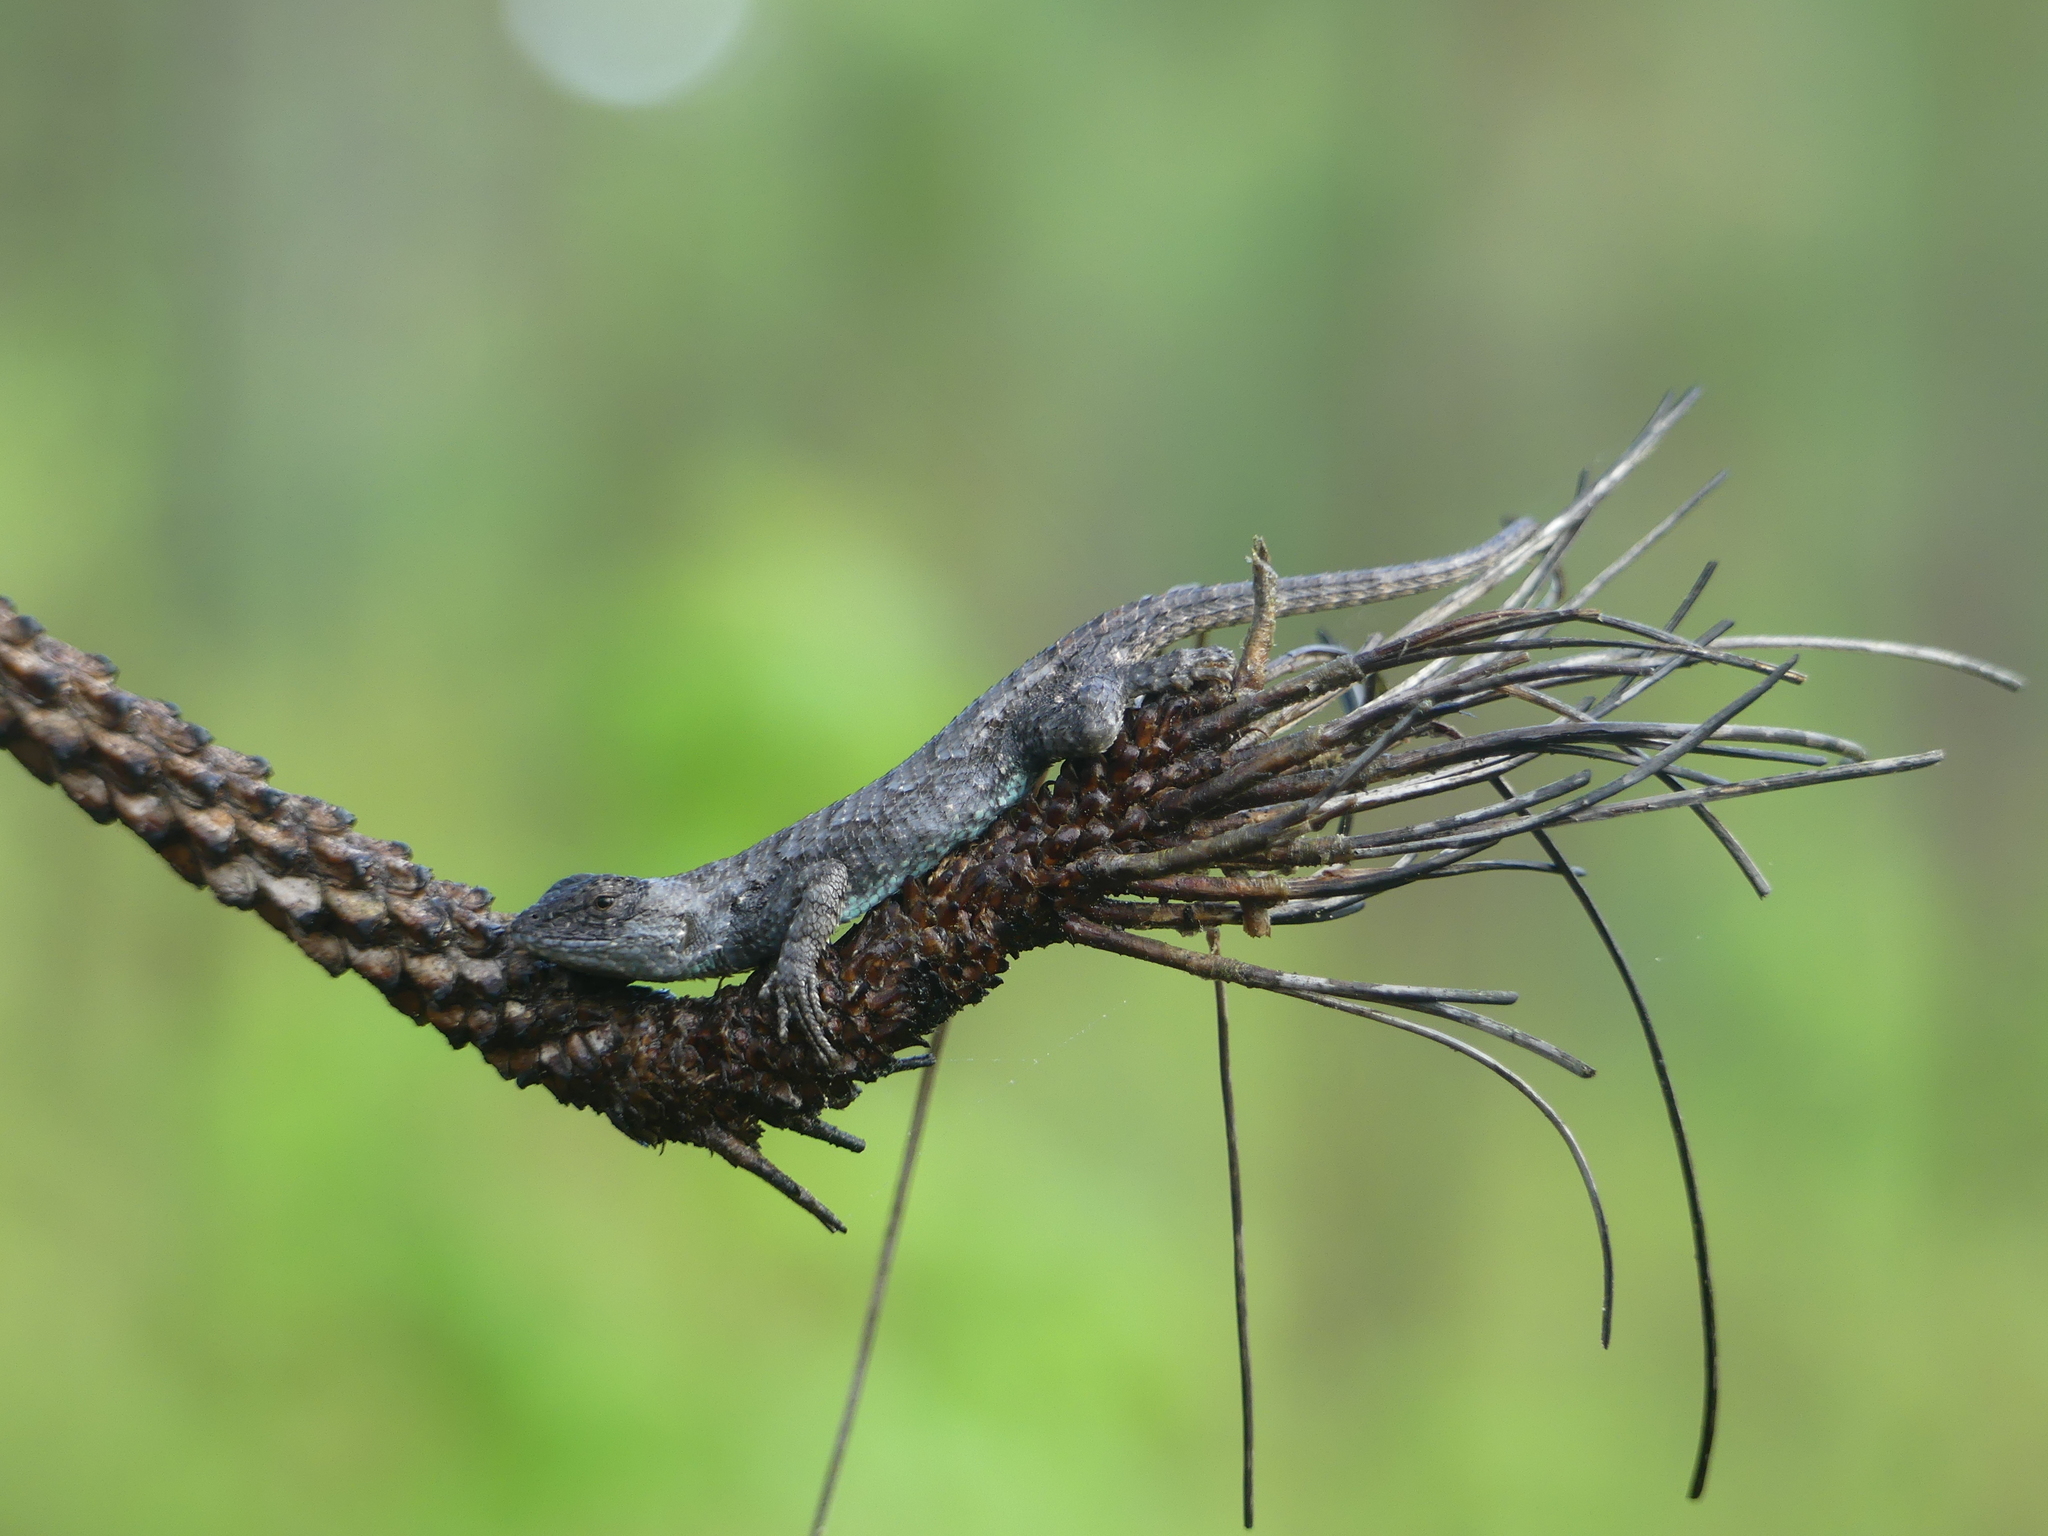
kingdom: Animalia
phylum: Chordata
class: Squamata
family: Phrynosomatidae
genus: Sceloporus
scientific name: Sceloporus consobrinus
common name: Southern prairie lizard
